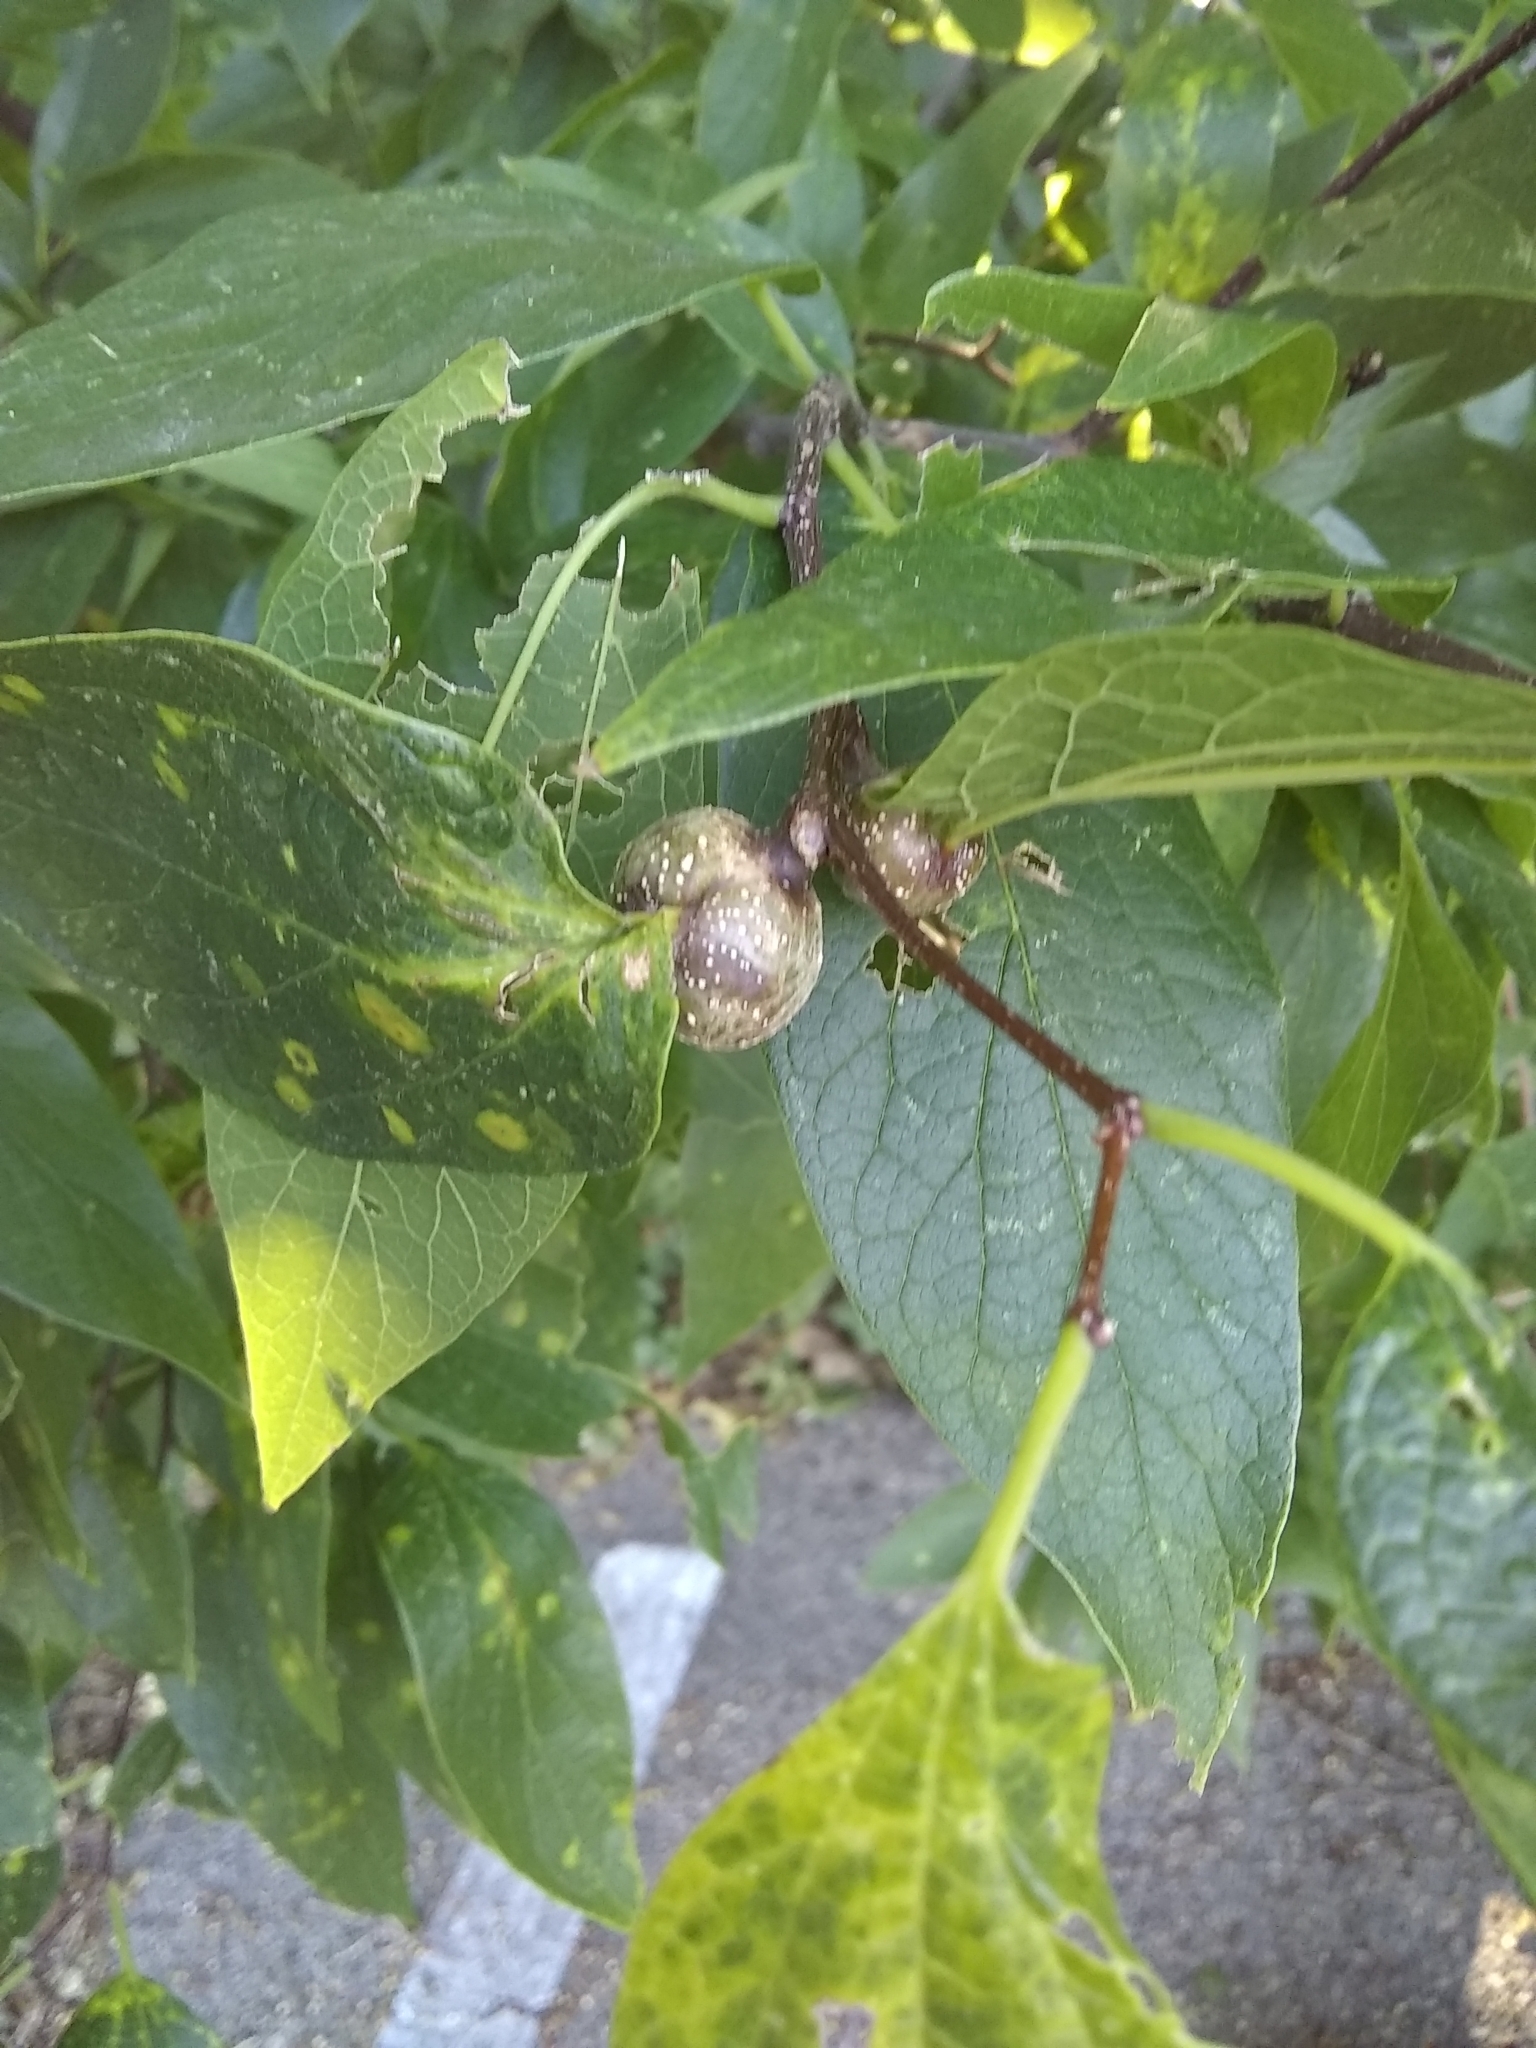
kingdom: Animalia
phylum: Arthropoda
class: Insecta
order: Hemiptera
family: Aphalaridae
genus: Pachypsylla
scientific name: Pachypsylla venusta
